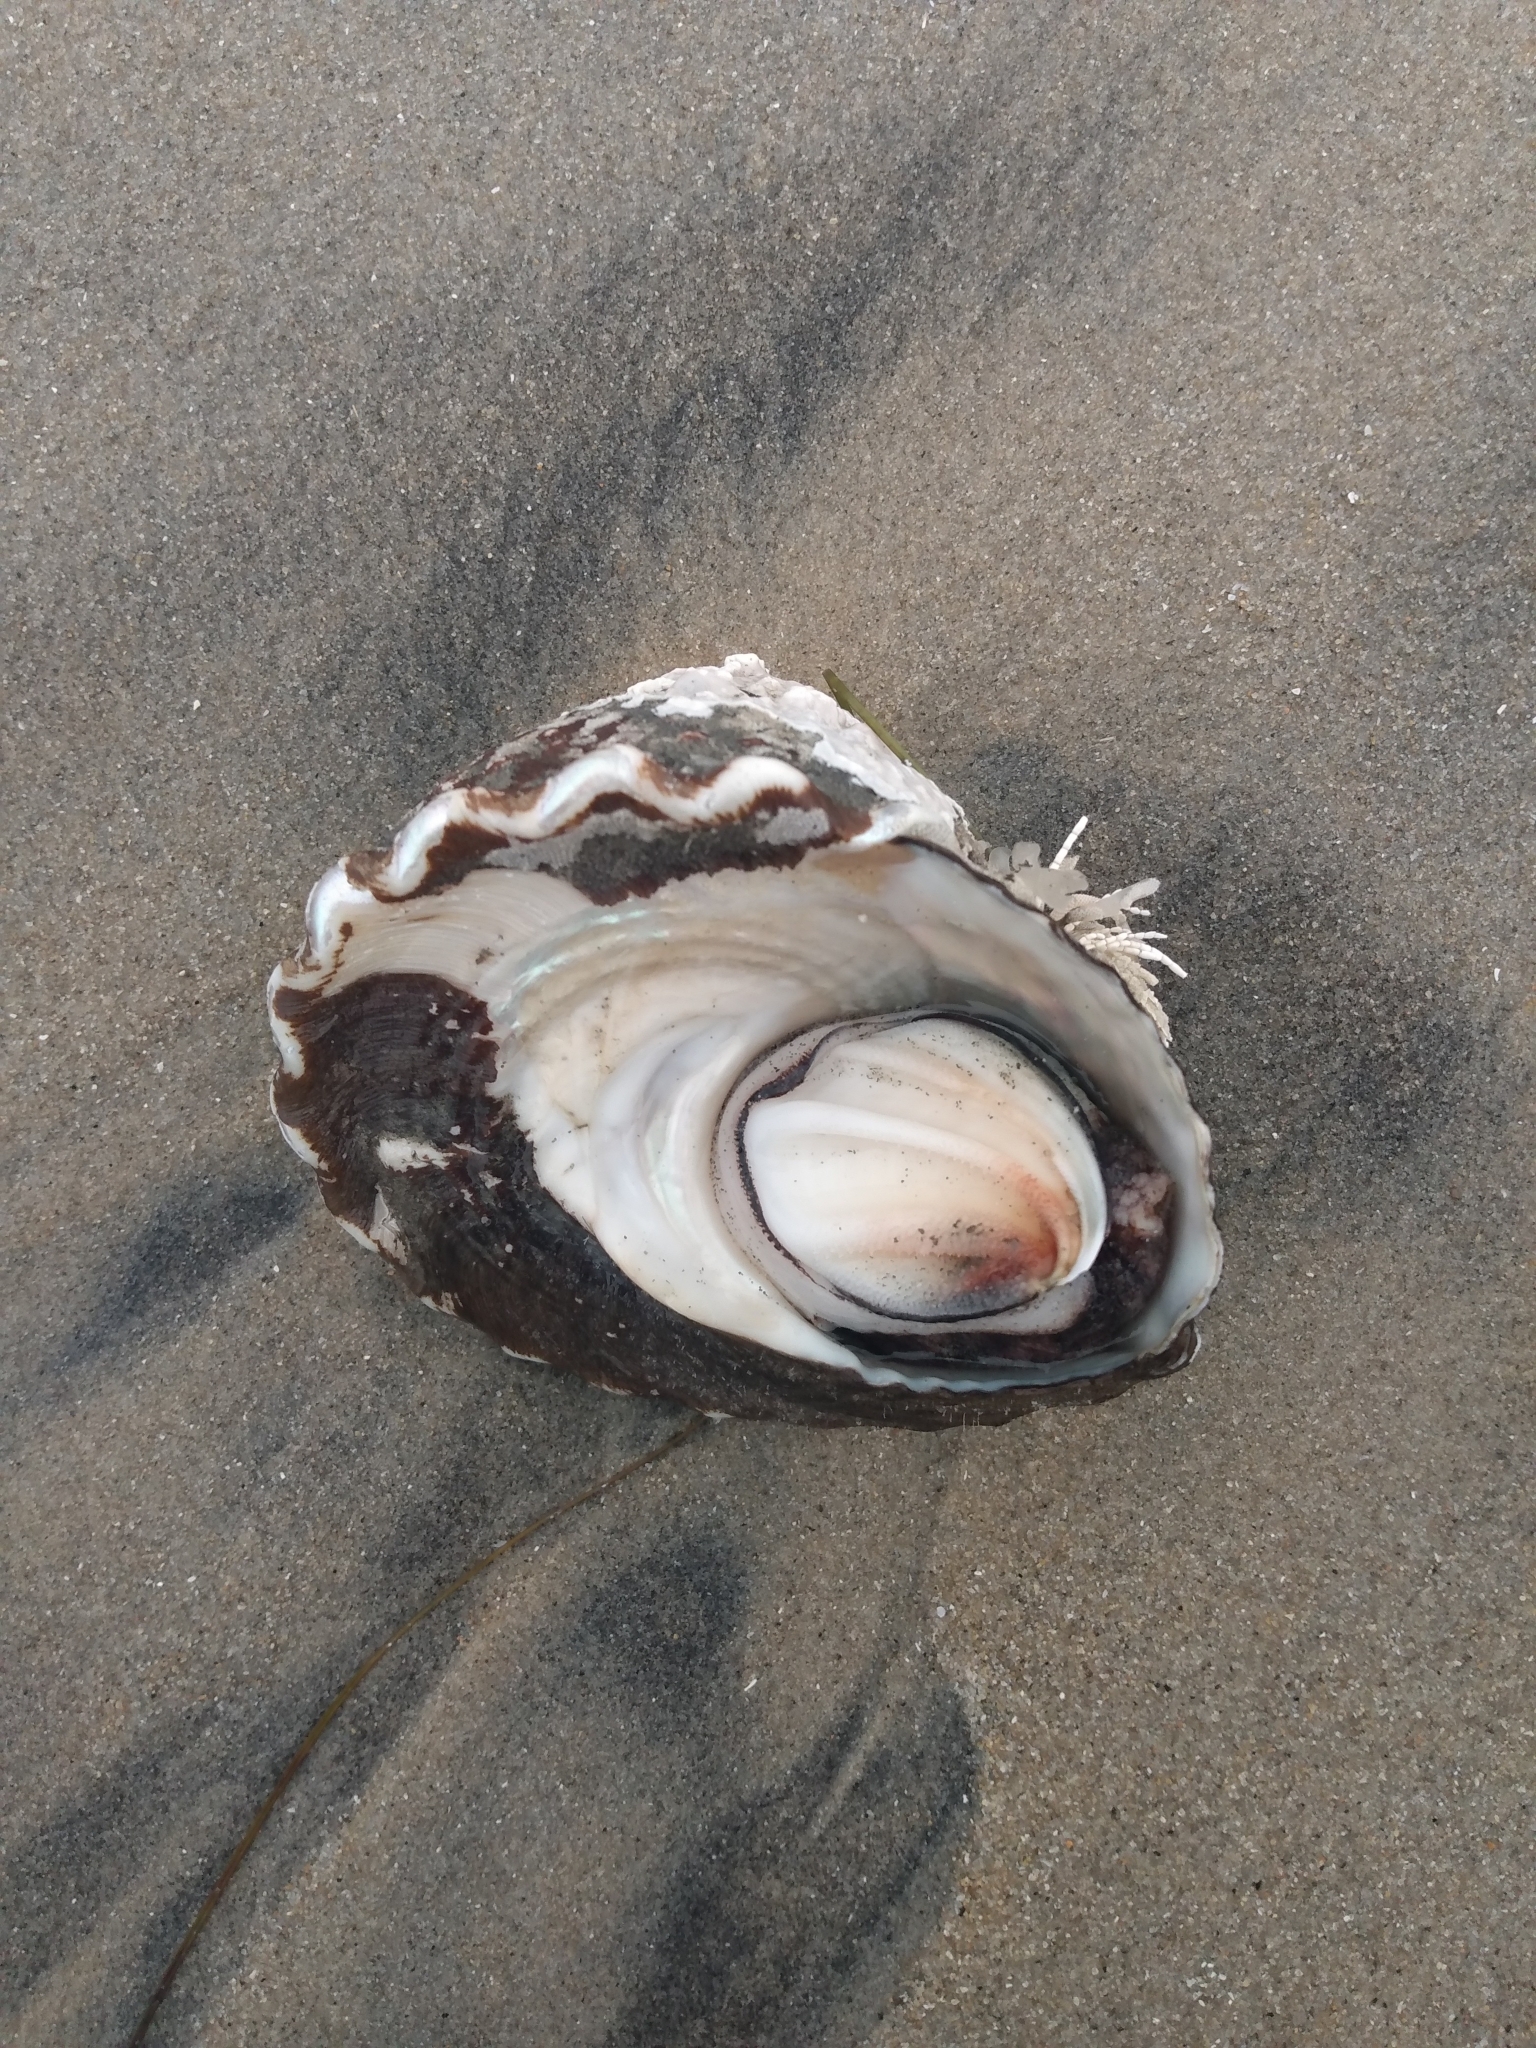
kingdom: Animalia
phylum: Mollusca
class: Gastropoda
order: Trochida
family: Turbinidae
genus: Megastraea
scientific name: Megastraea undosa
